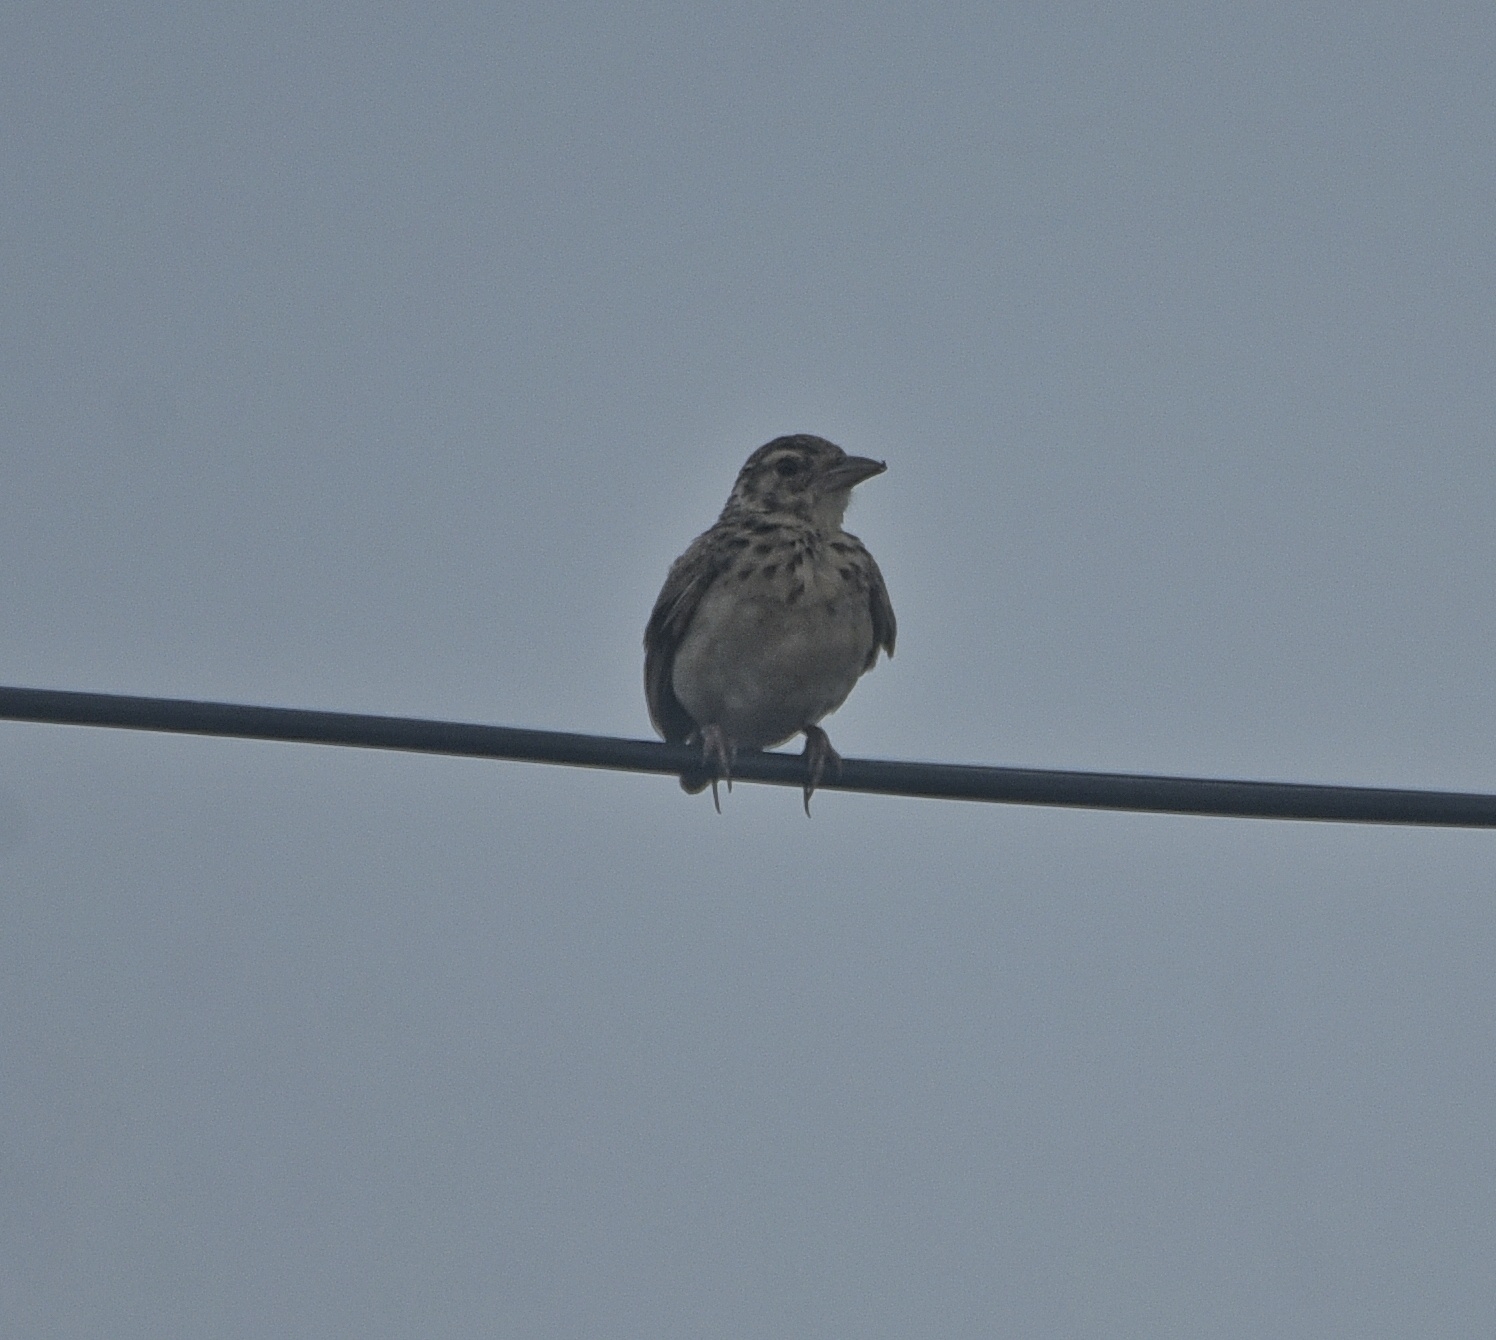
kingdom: Animalia
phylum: Chordata
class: Aves
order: Passeriformes
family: Alaudidae
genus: Mirafra
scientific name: Mirafra affinis
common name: Jerdon's bushlark
